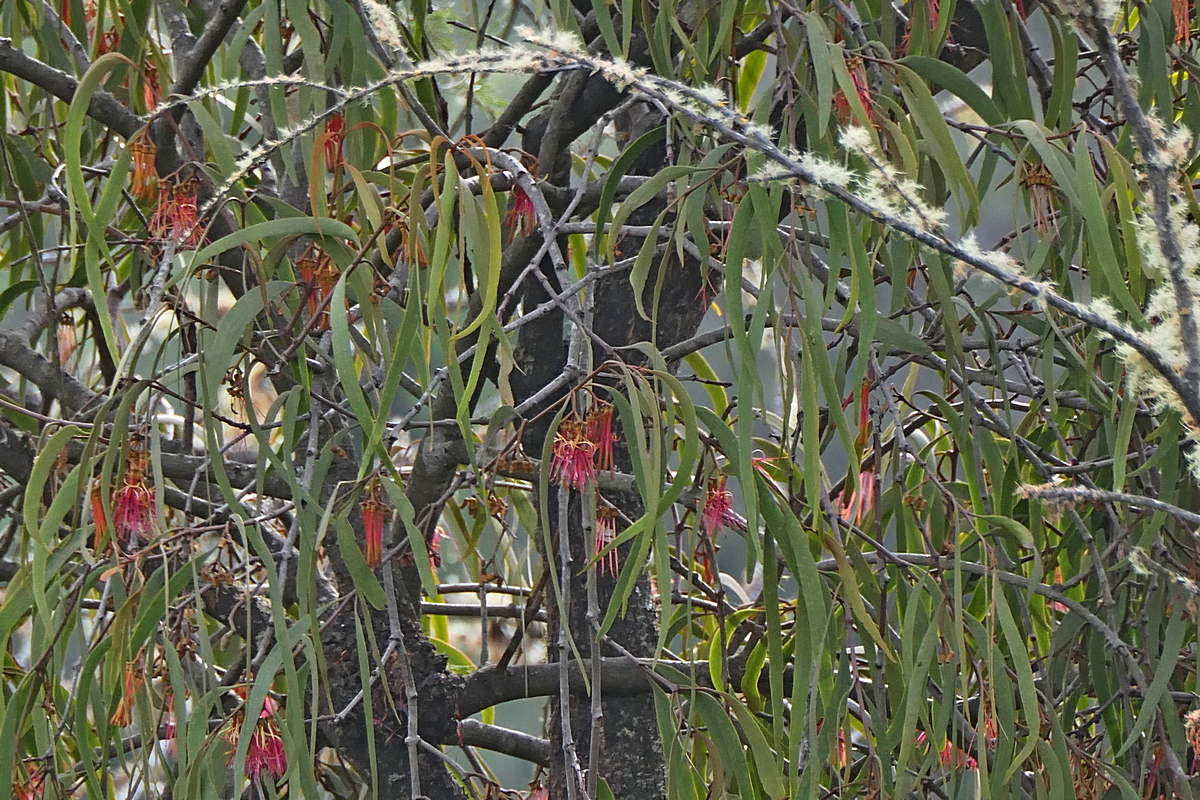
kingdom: Plantae
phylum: Tracheophyta
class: Magnoliopsida
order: Santalales
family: Loranthaceae
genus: Amyema
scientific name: Amyema pendula
